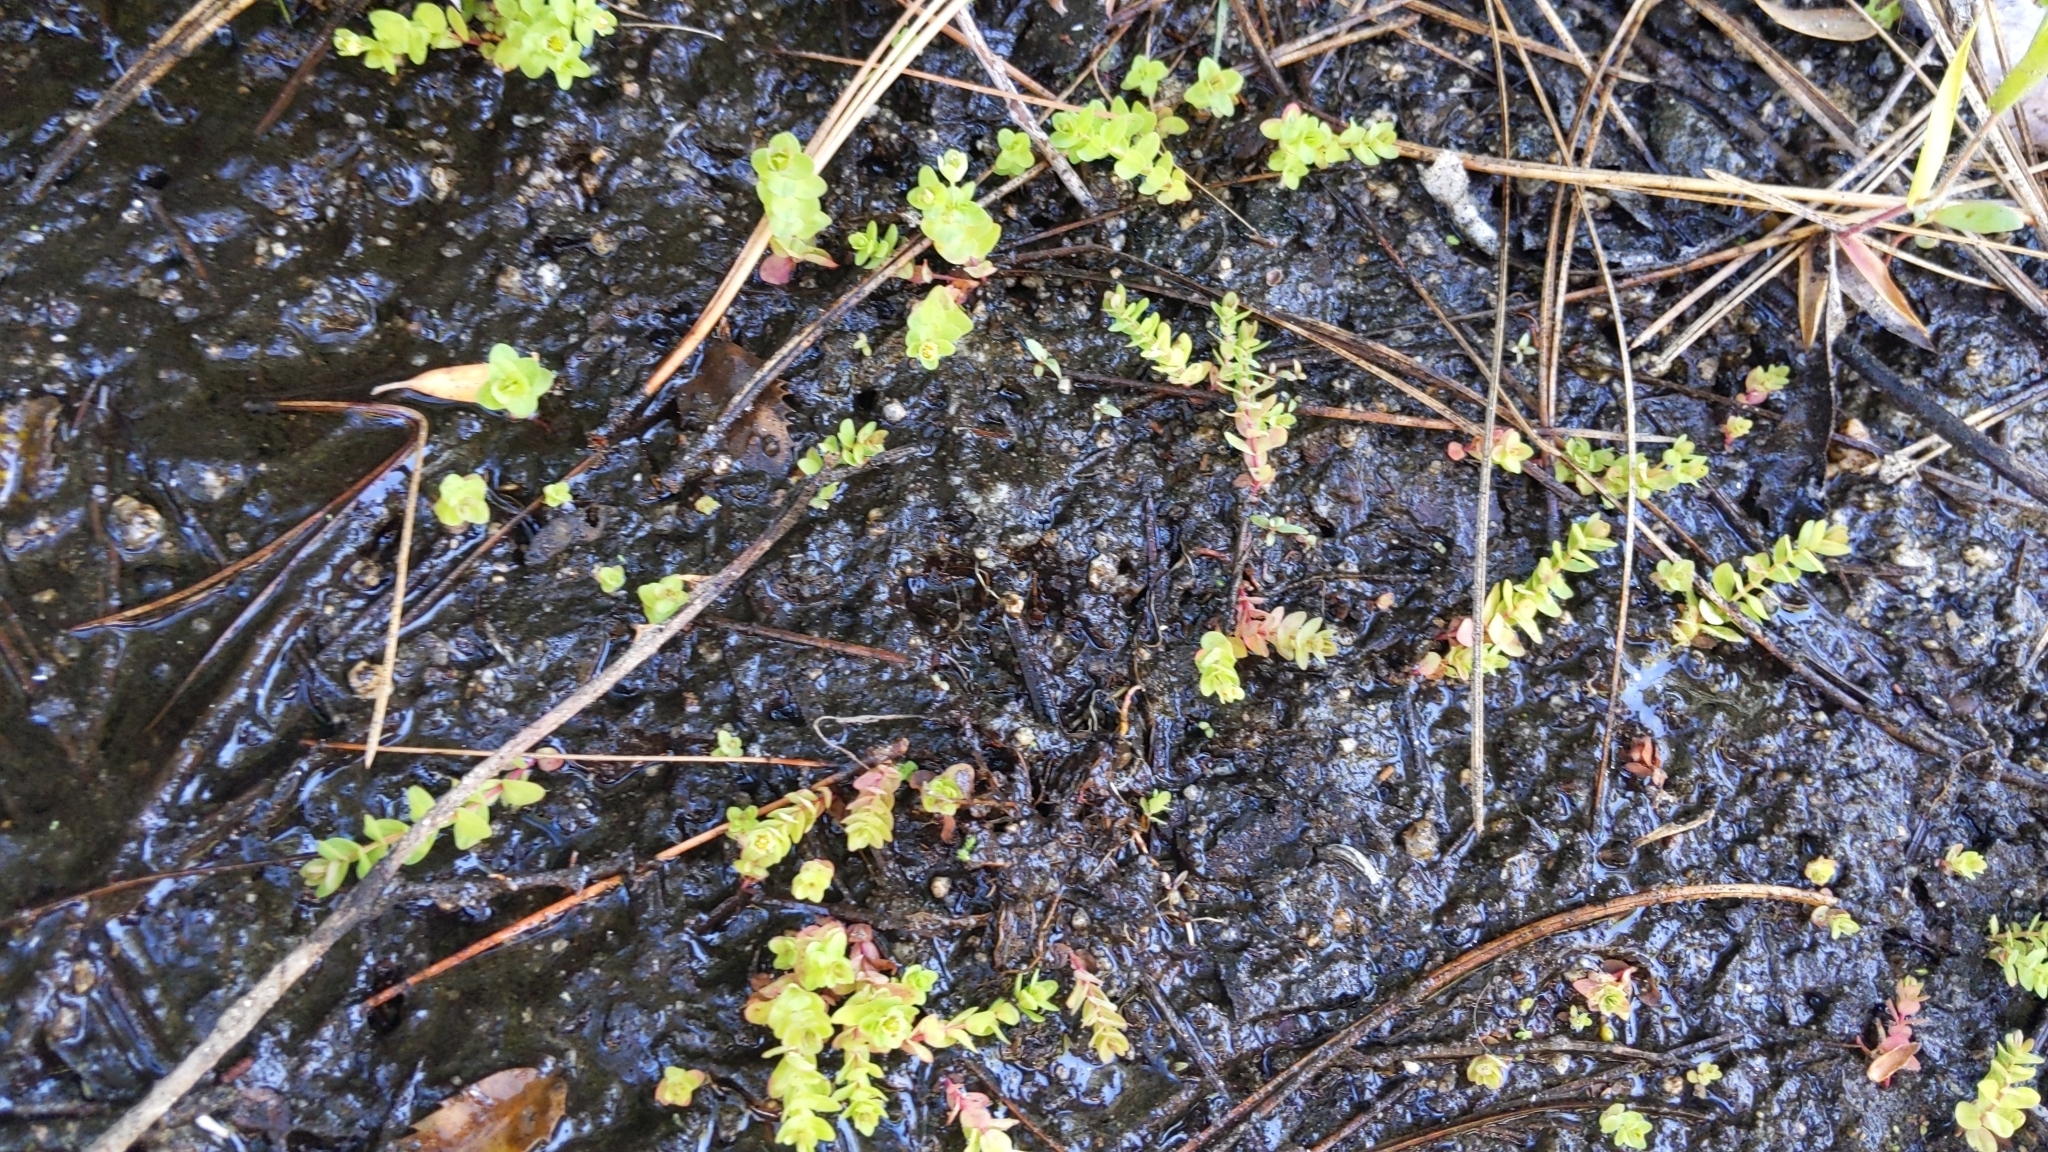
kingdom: Plantae
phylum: Tracheophyta
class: Magnoliopsida
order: Malpighiales
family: Hypericaceae
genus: Hypericum
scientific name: Hypericum anagalloides
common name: Bog st. john's-wort
